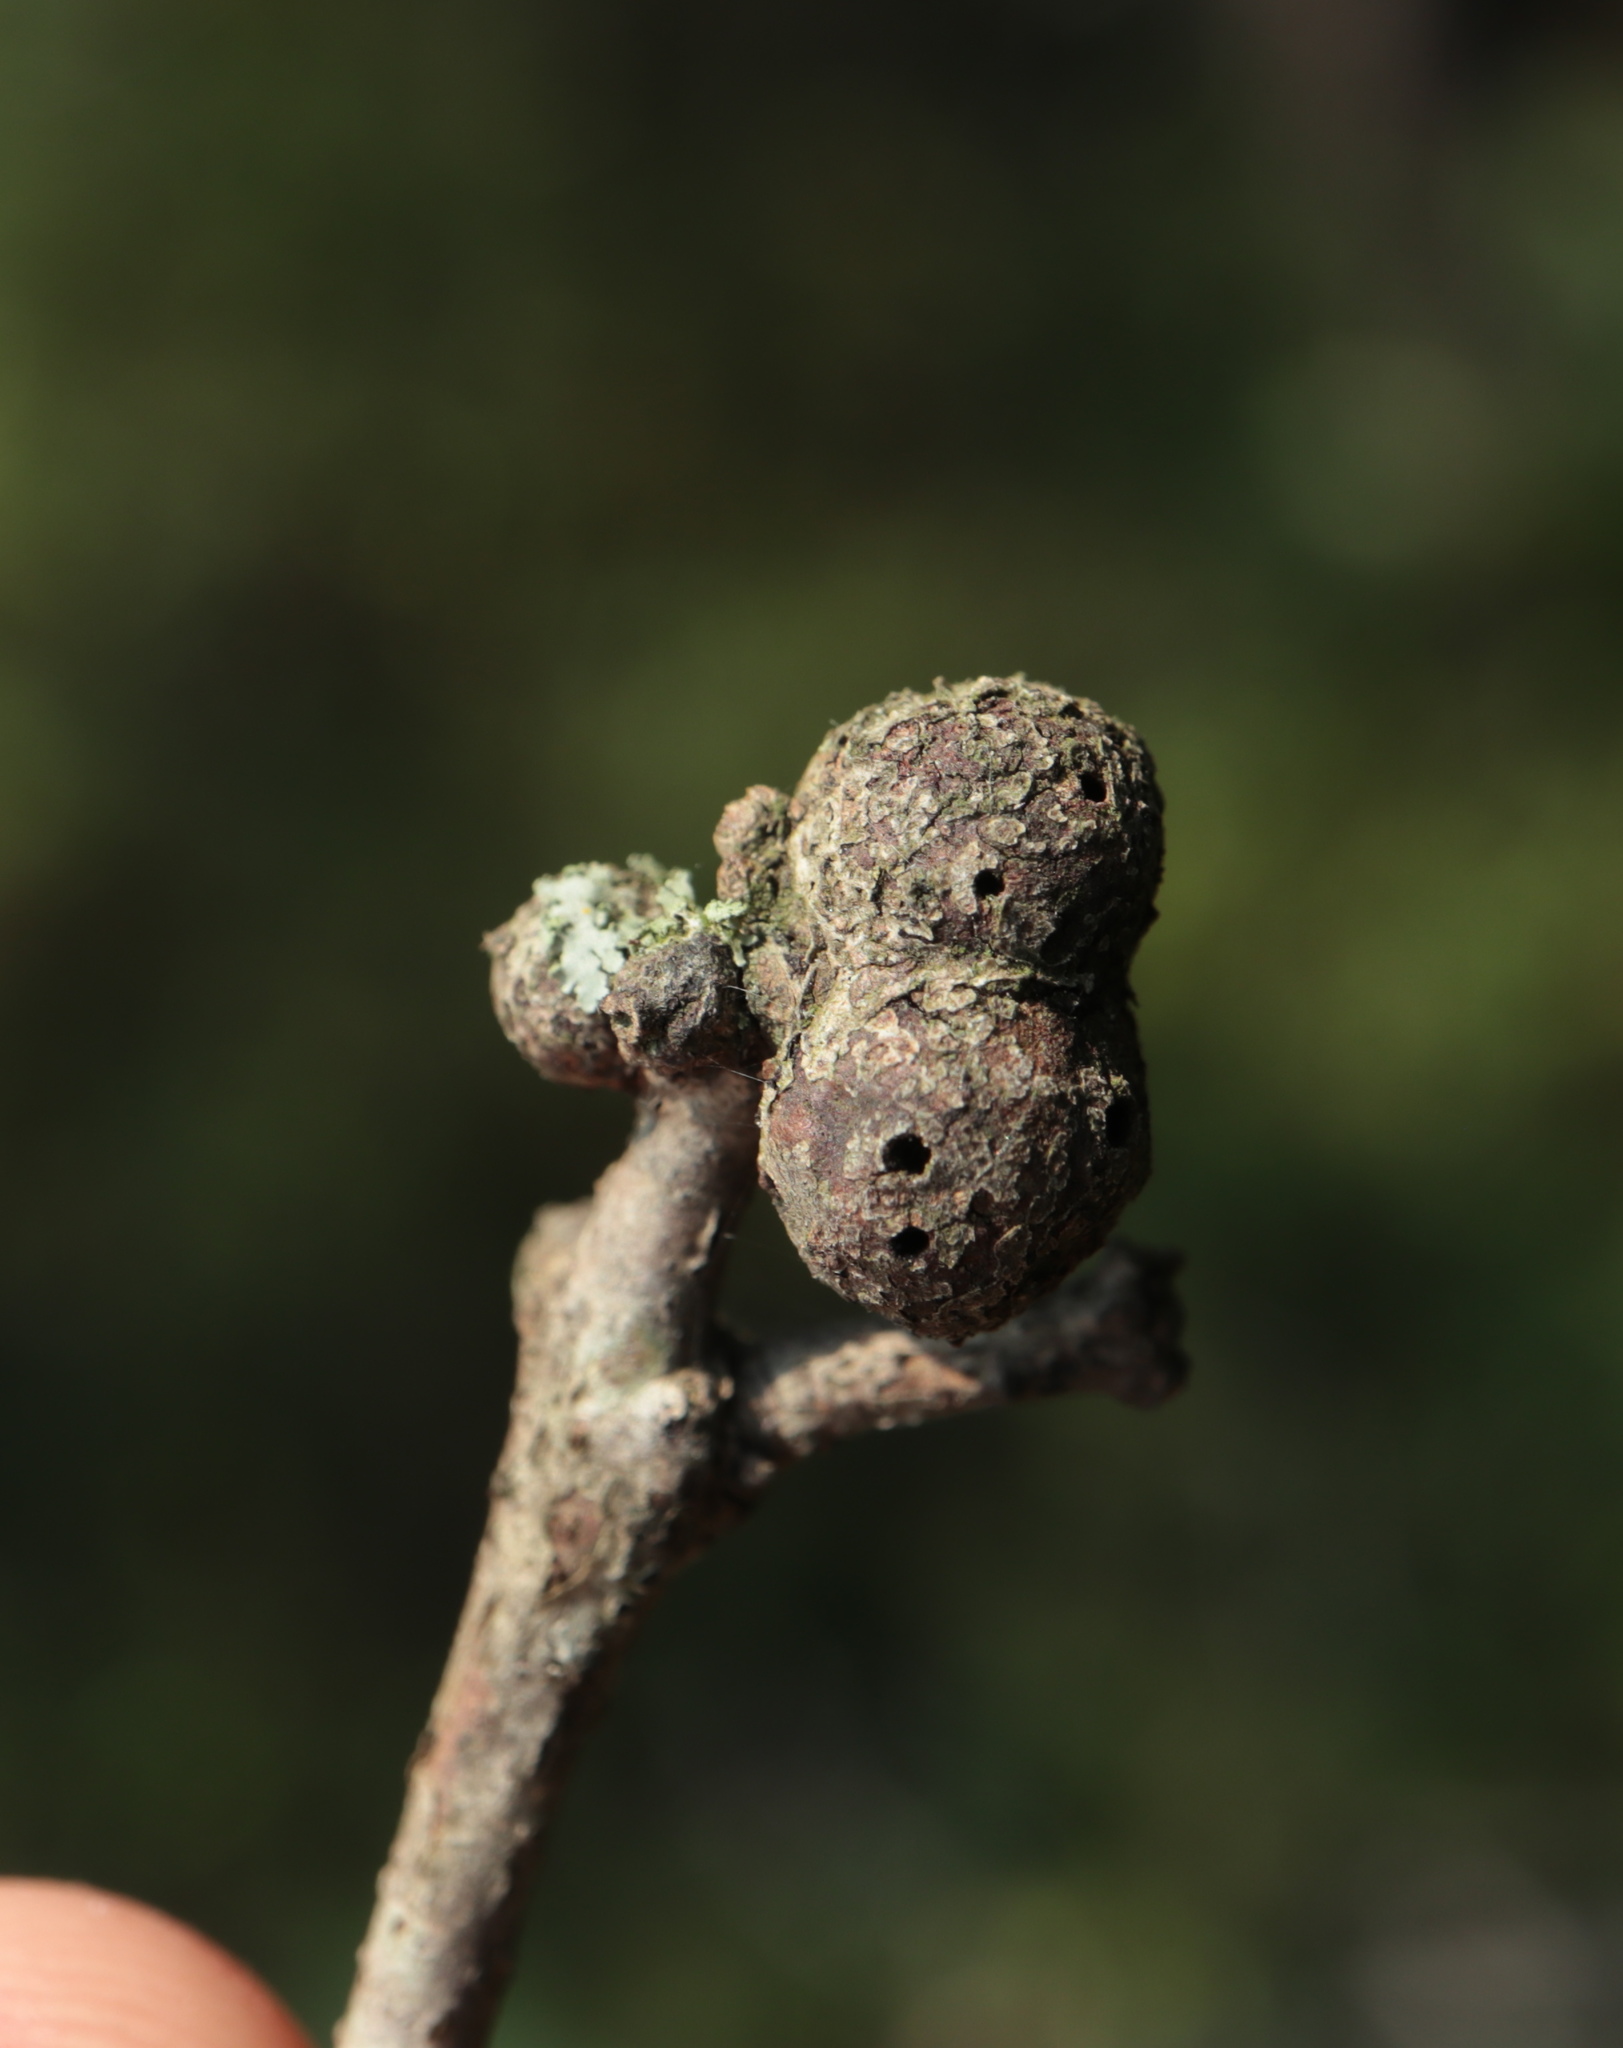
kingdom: Animalia
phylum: Arthropoda
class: Insecta
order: Hymenoptera
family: Cynipidae
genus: Synergus
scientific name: Synergus lignicola
